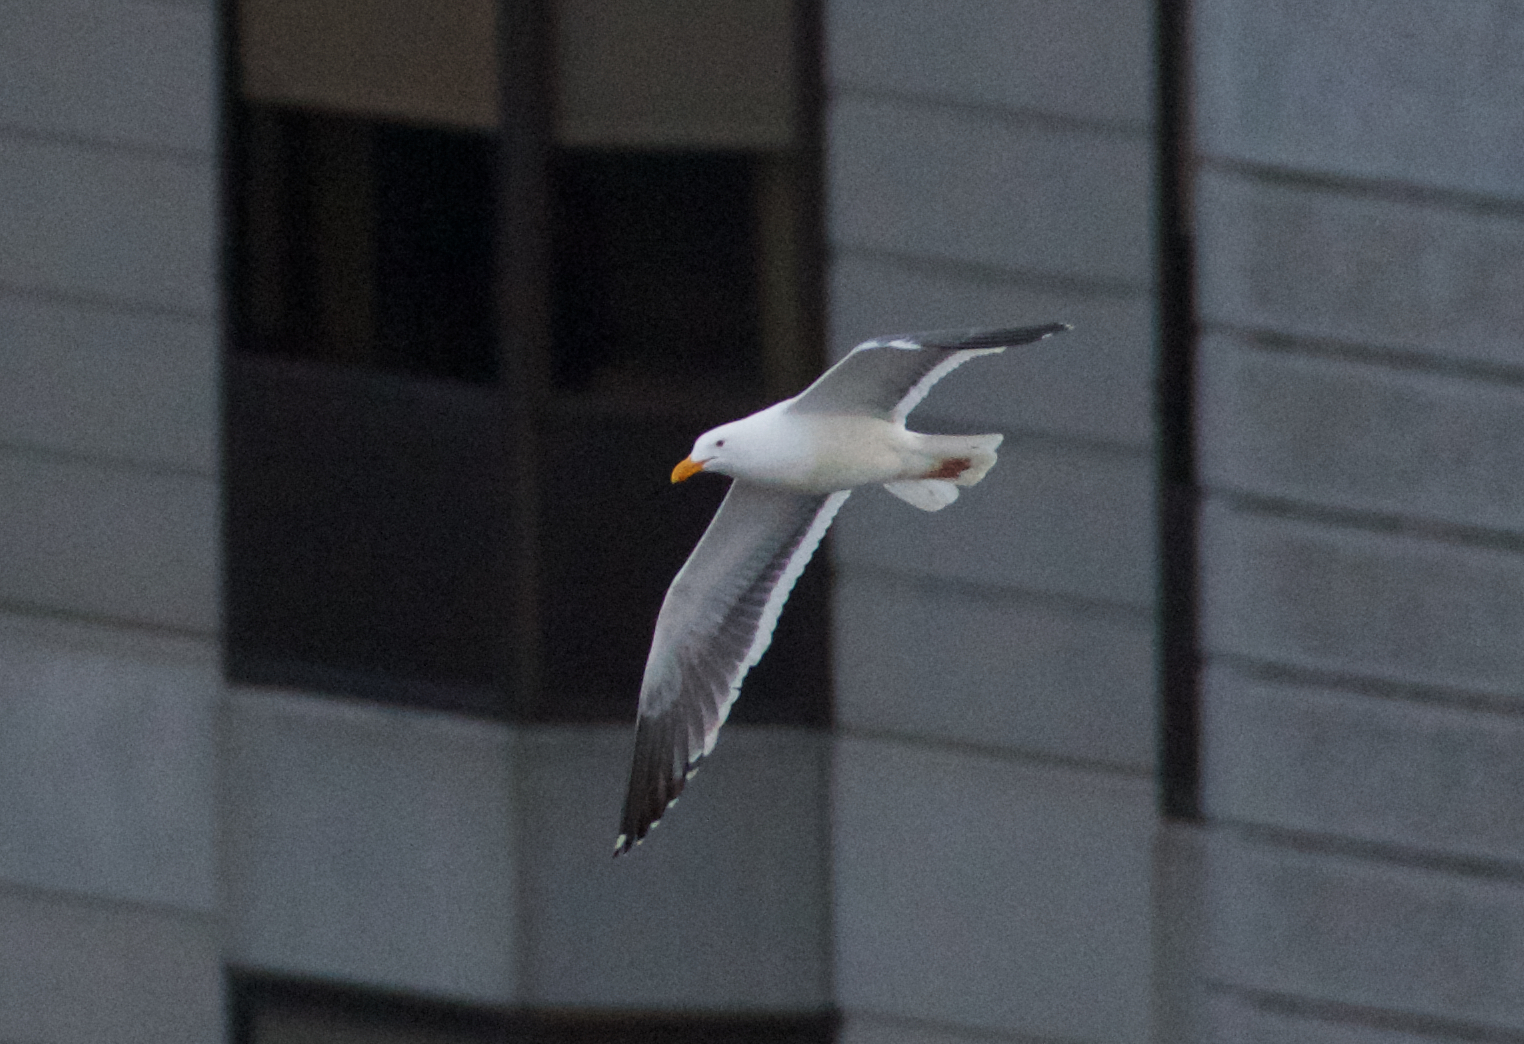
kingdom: Animalia
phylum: Chordata
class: Aves
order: Charadriiformes
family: Laridae
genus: Larus
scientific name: Larus occidentalis
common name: Western gull
